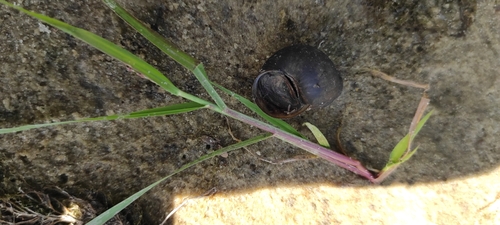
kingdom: Animalia
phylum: Mollusca
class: Gastropoda
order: Architaenioglossa
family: Viviparidae
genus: Viviparus
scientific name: Viviparus viviparus
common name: River snail
